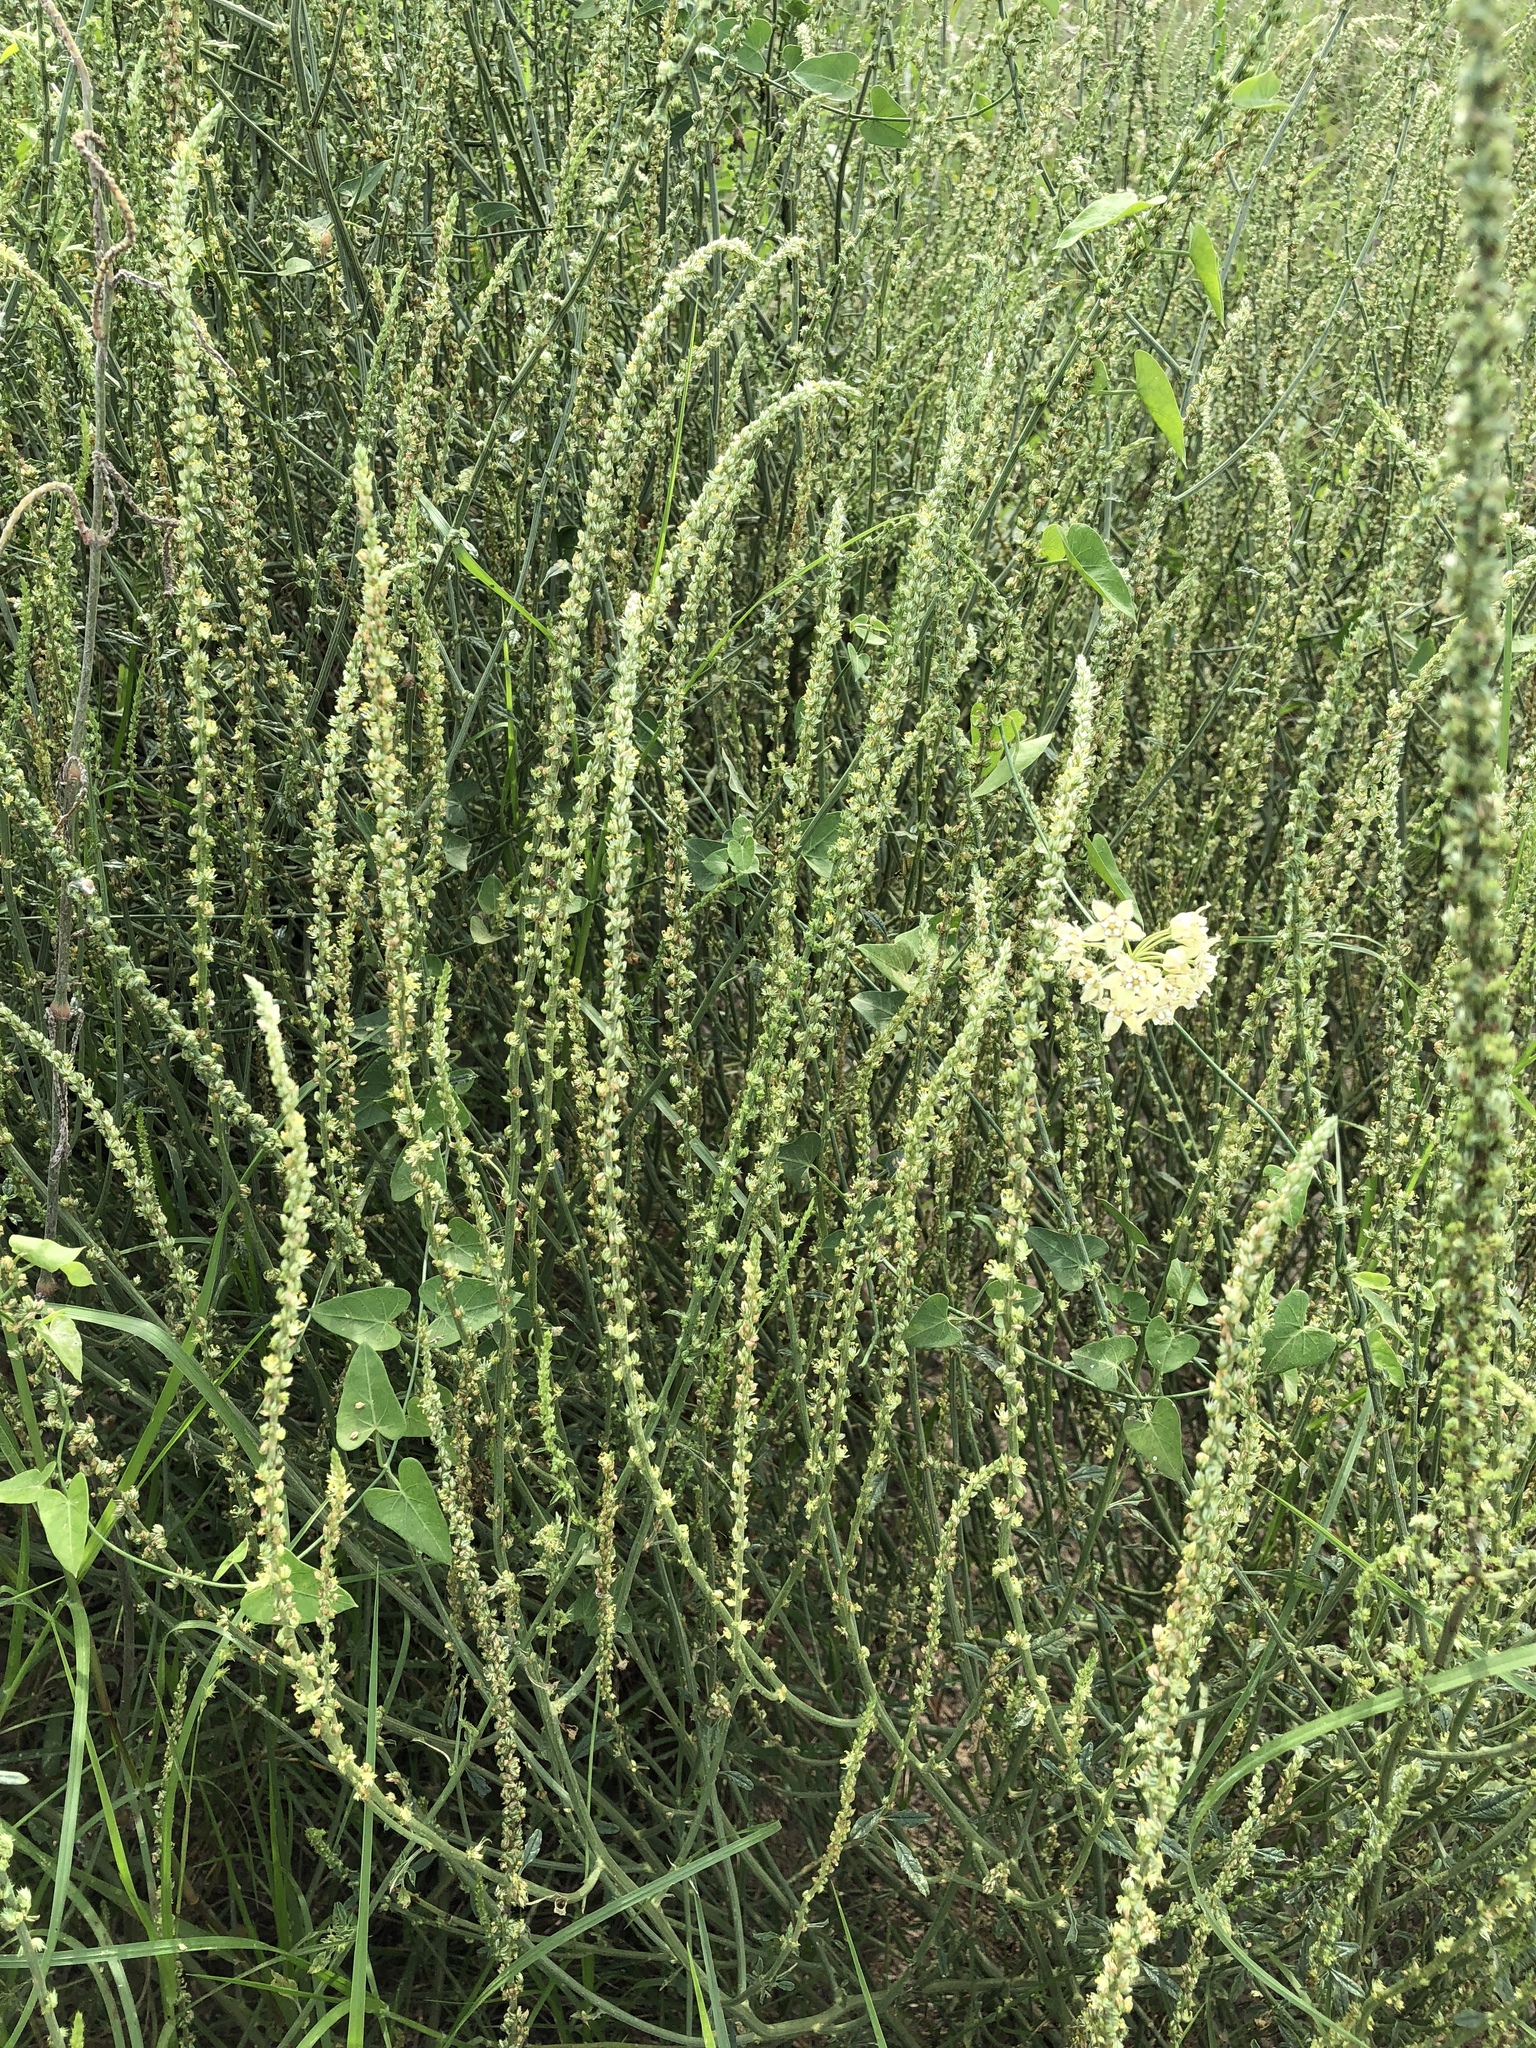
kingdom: Plantae
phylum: Tracheophyta
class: Magnoliopsida
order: Gentianales
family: Apocynaceae
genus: Funastrum
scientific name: Funastrum cynanchoides
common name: Climbing-milkweed
